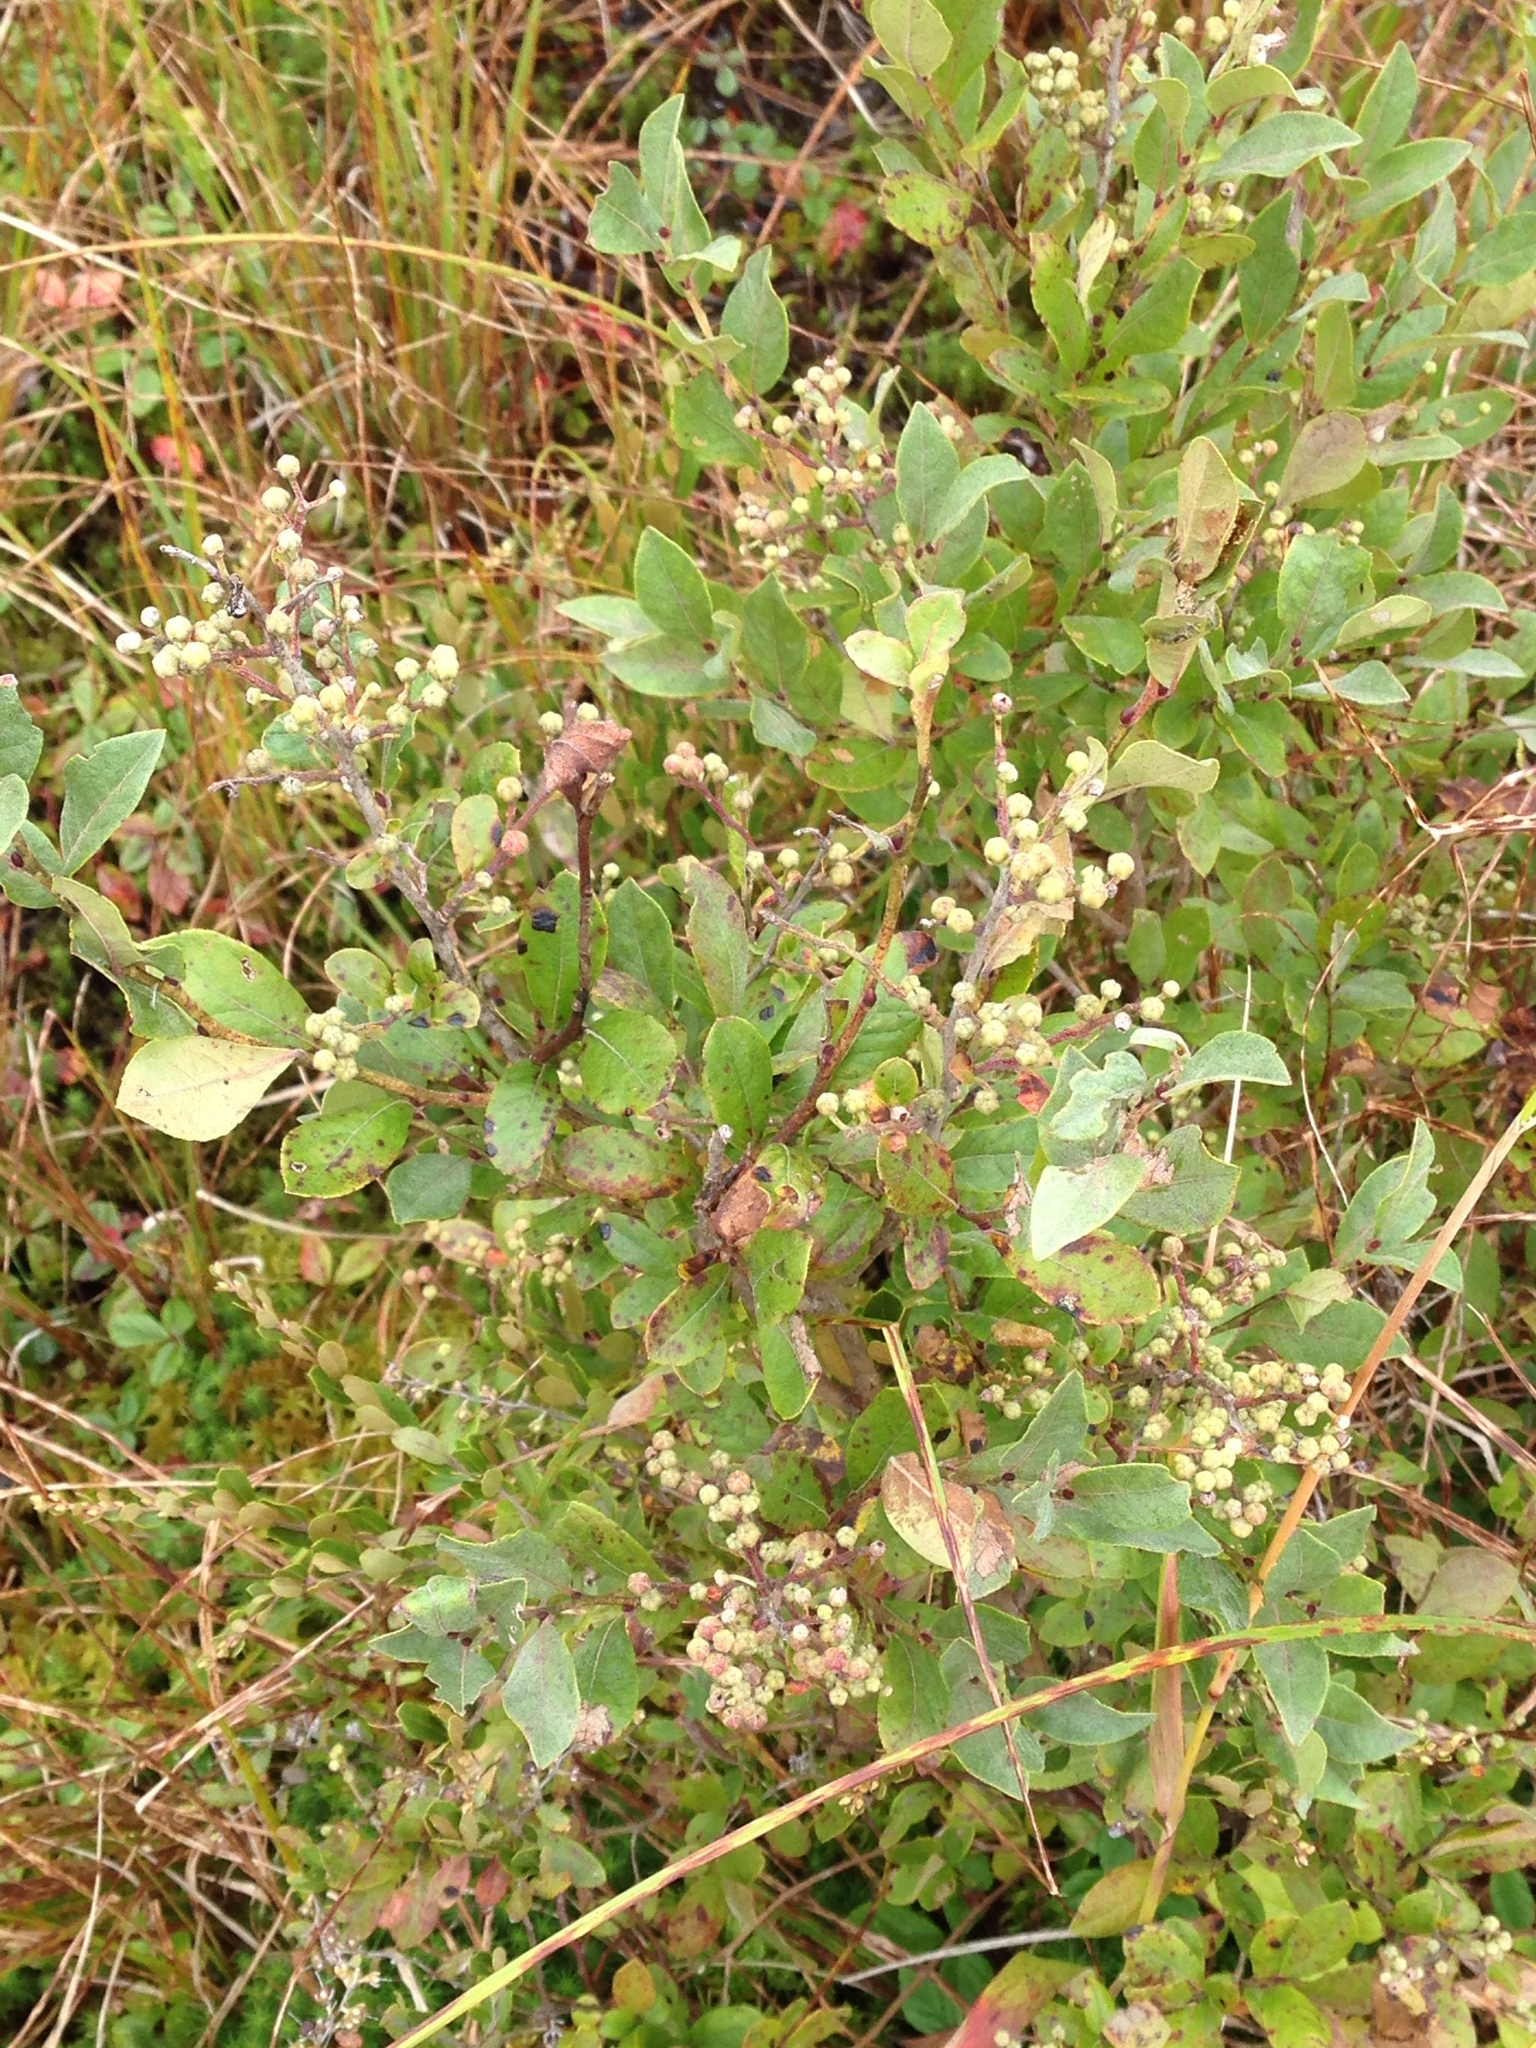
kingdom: Plantae
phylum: Tracheophyta
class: Magnoliopsida
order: Ericales
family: Ericaceae
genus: Lyonia
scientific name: Lyonia ligustrina
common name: Maleberry
